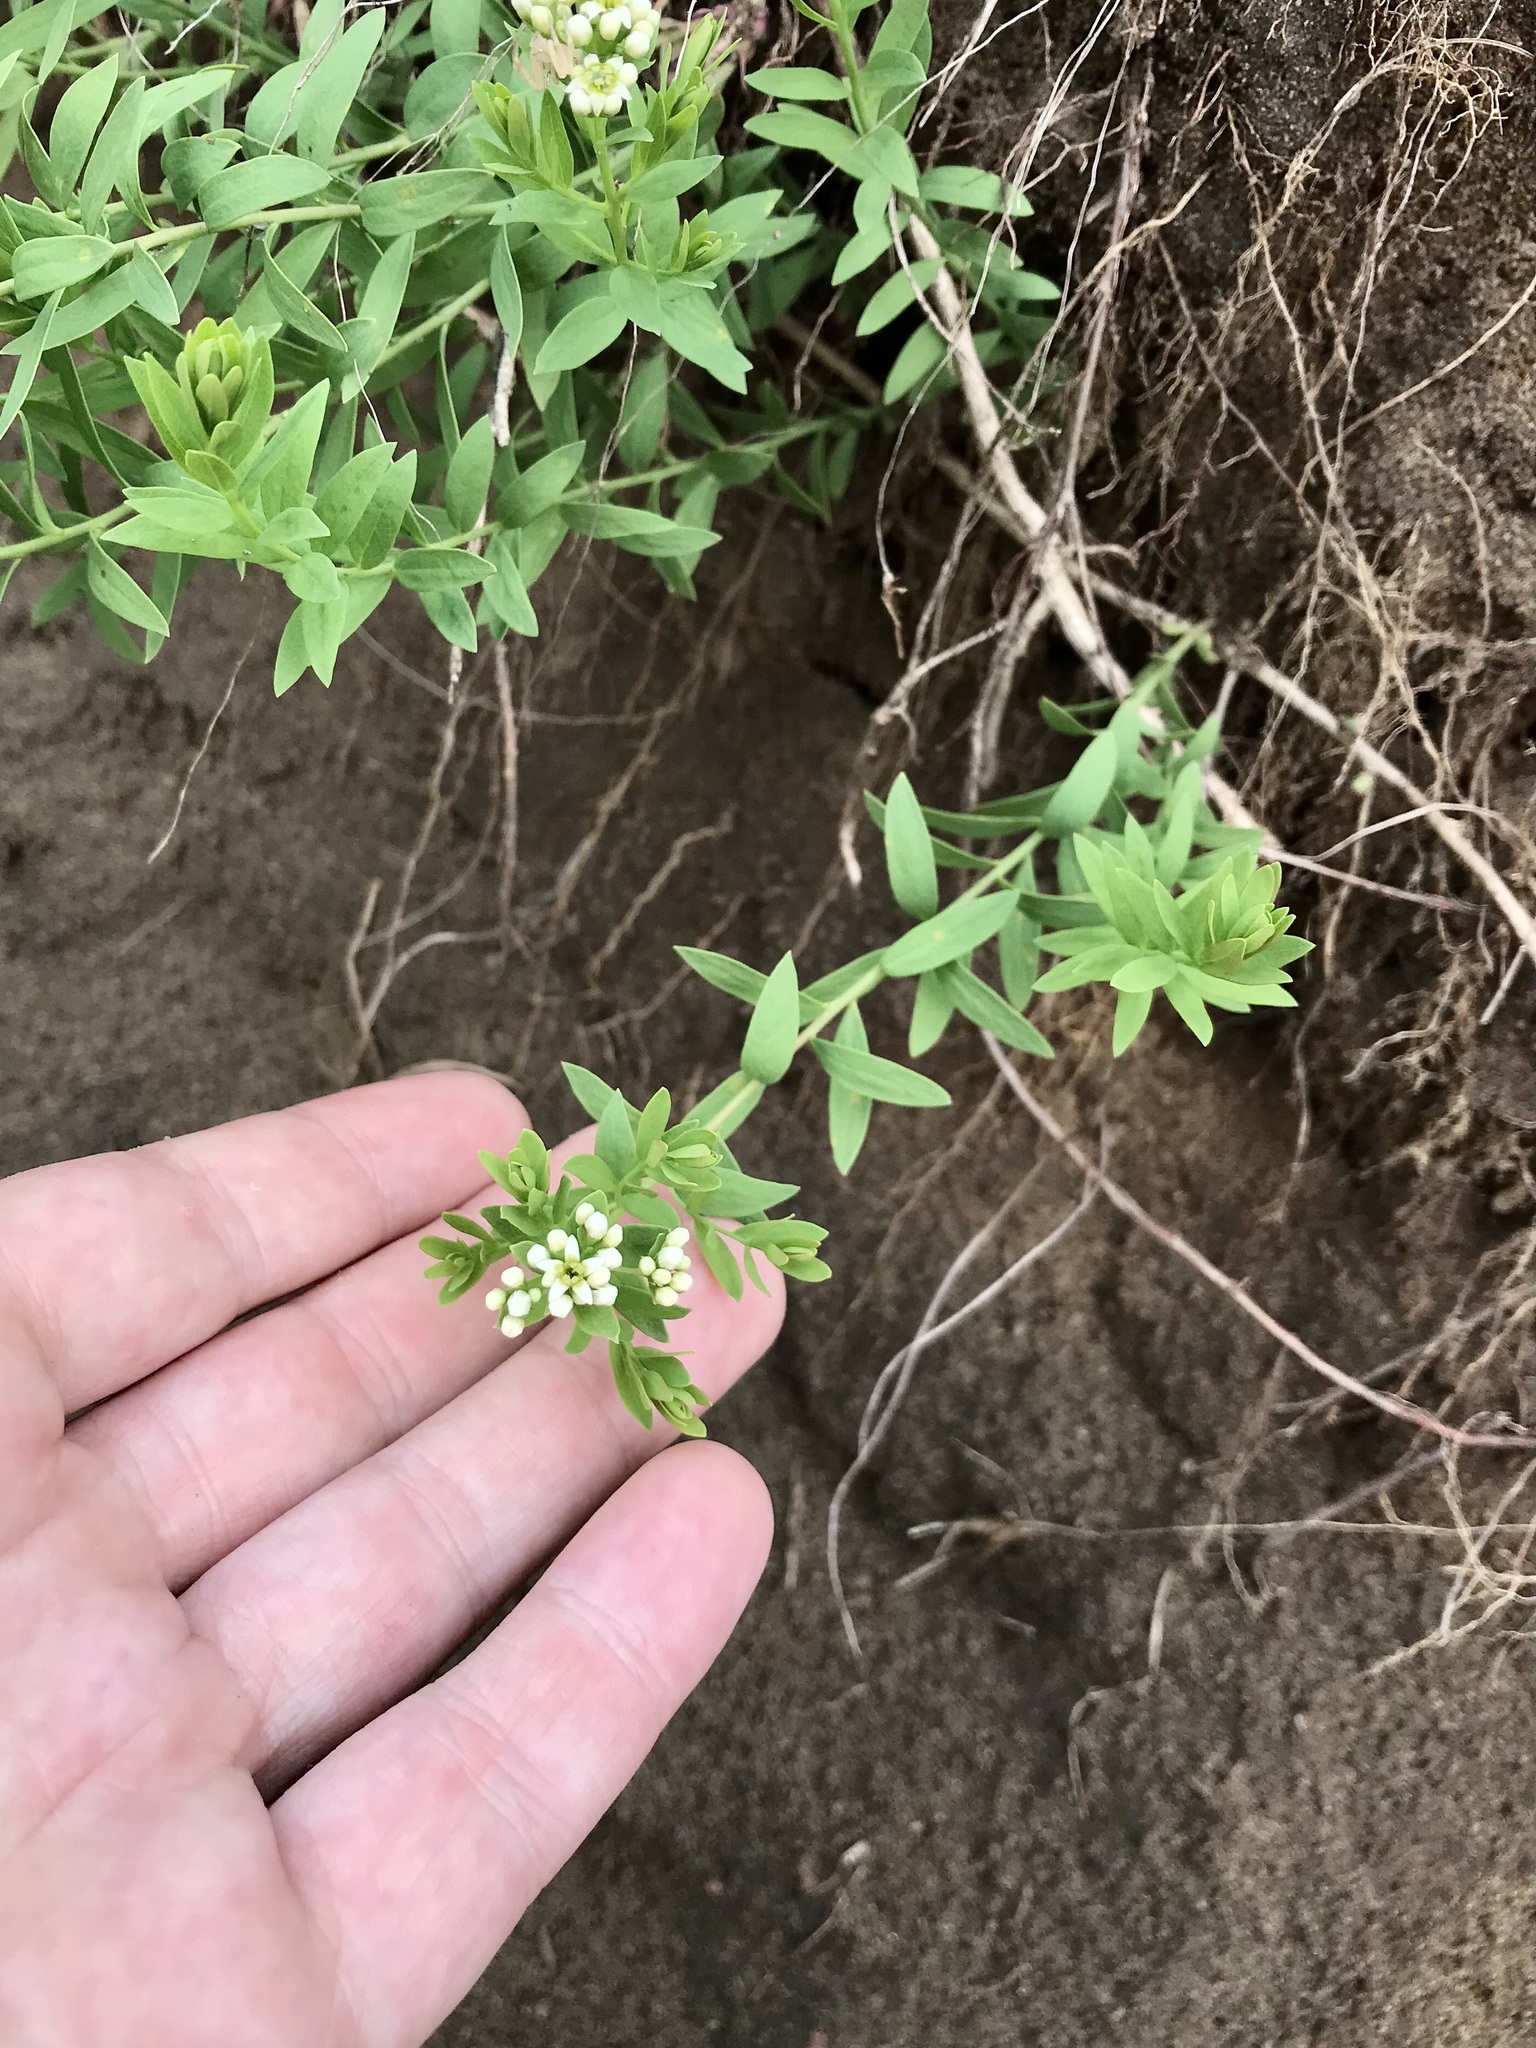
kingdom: Plantae
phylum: Tracheophyta
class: Magnoliopsida
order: Santalales
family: Comandraceae
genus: Comandra
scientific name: Comandra umbellata
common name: Bastard toadflax
